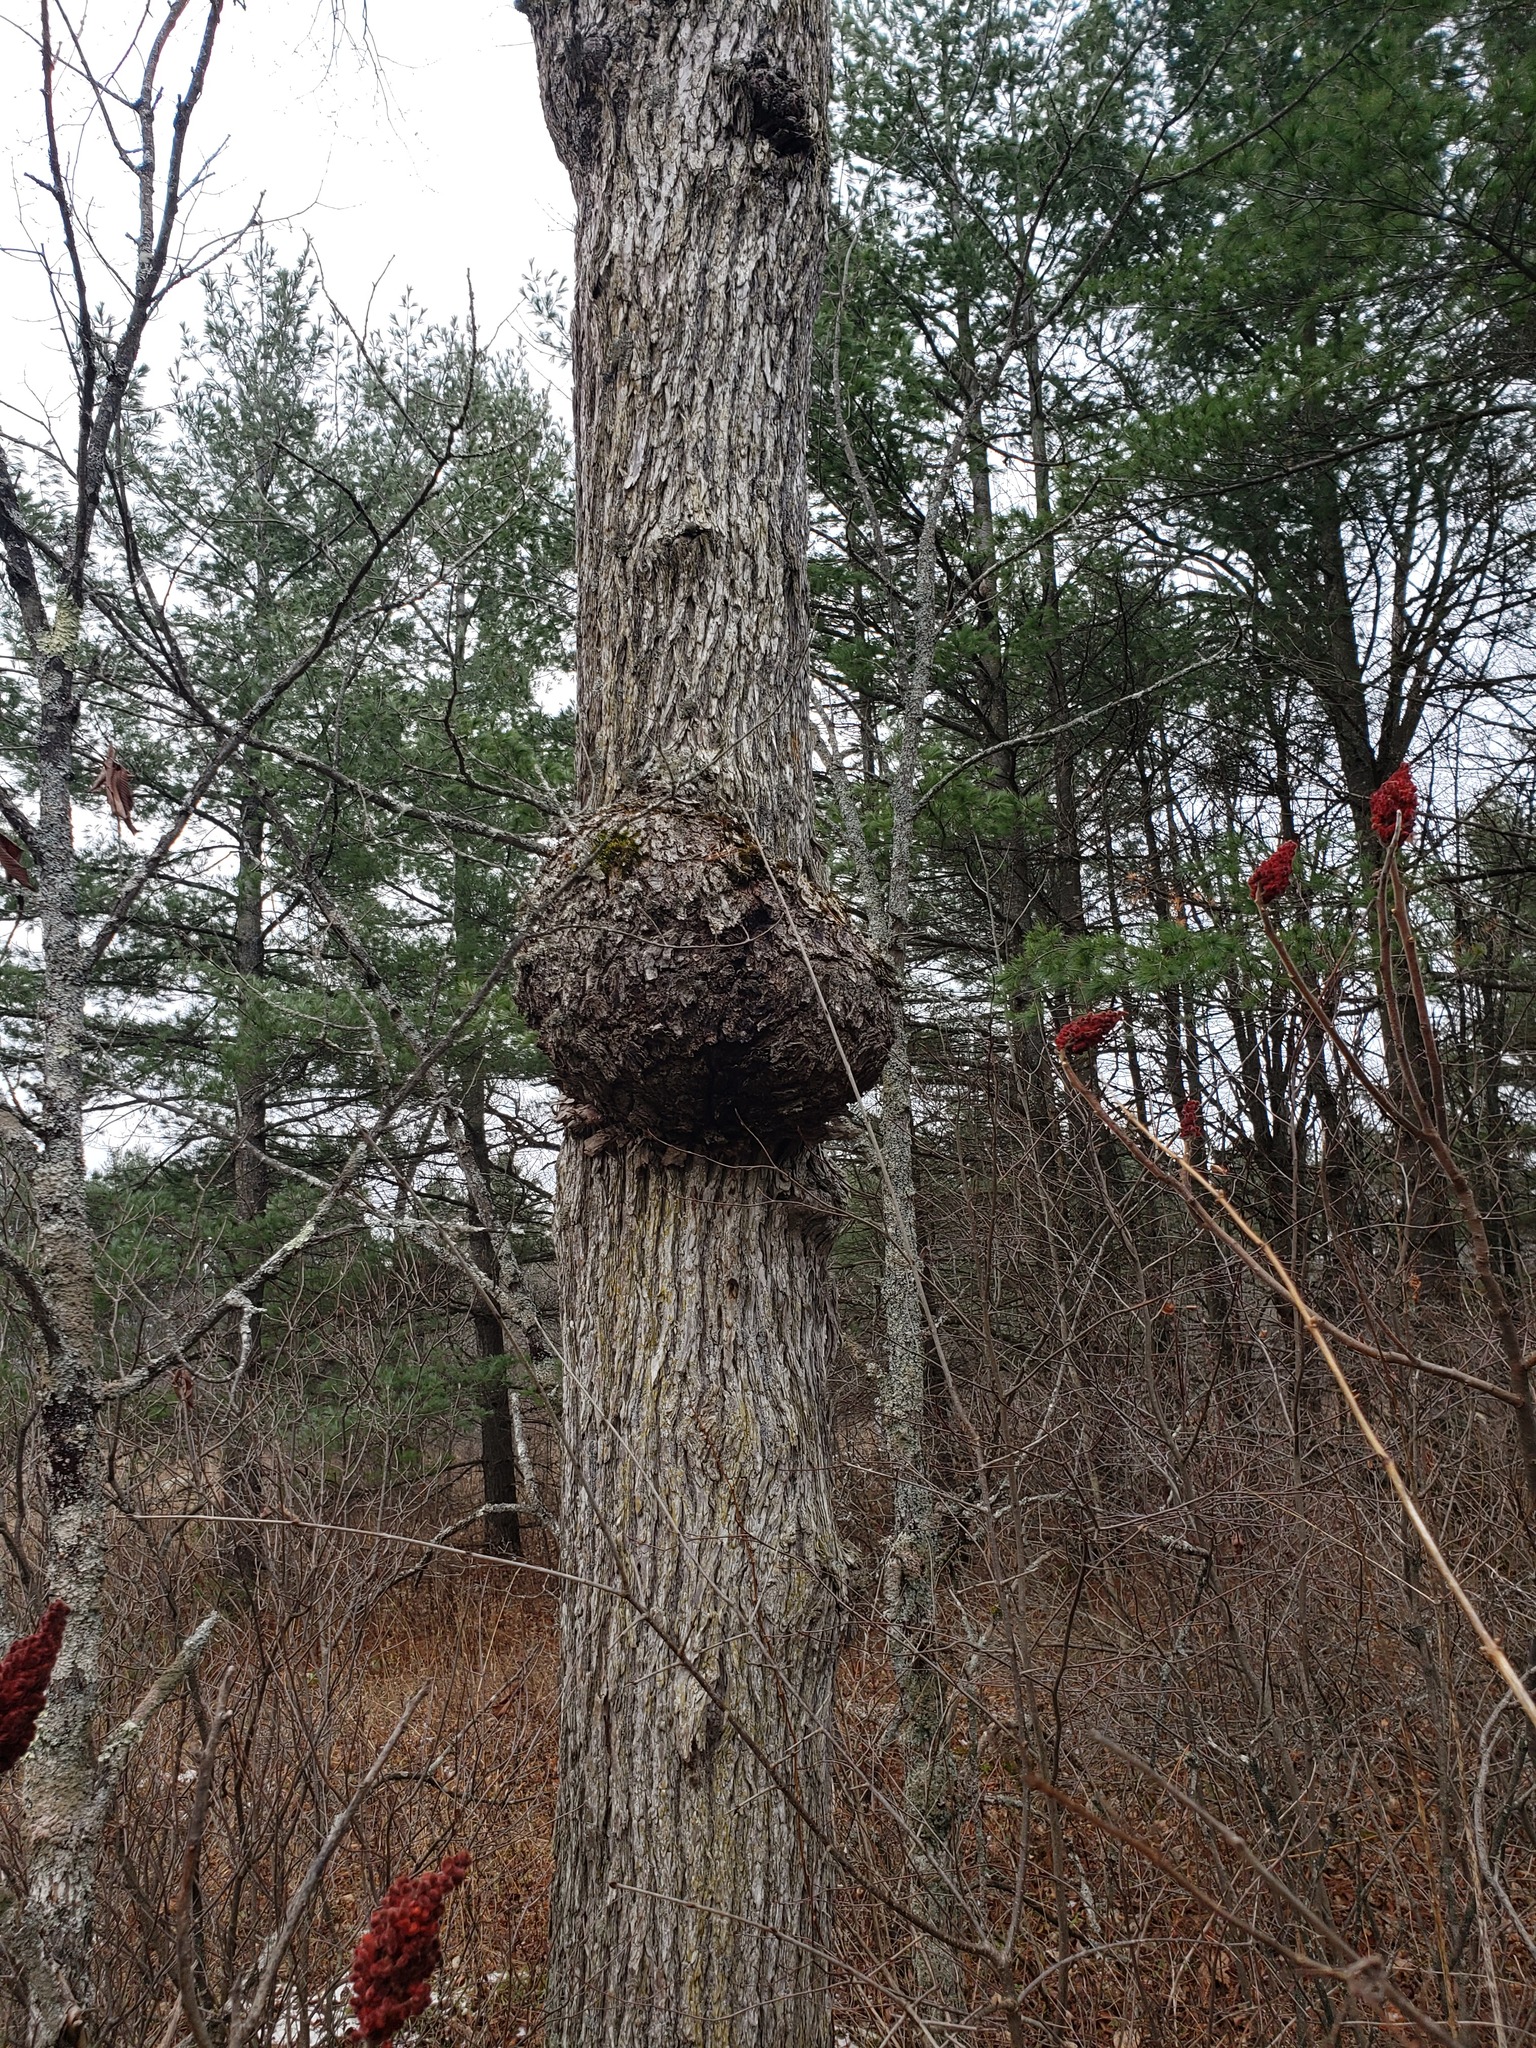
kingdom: Bacteria
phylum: Proteobacteria
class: Alphaproteobacteria
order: Rhizobiales
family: Rhizobiaceae
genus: Rhizobium
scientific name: Rhizobium Agrobacterium radiobacter
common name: Bacterial crown gall
